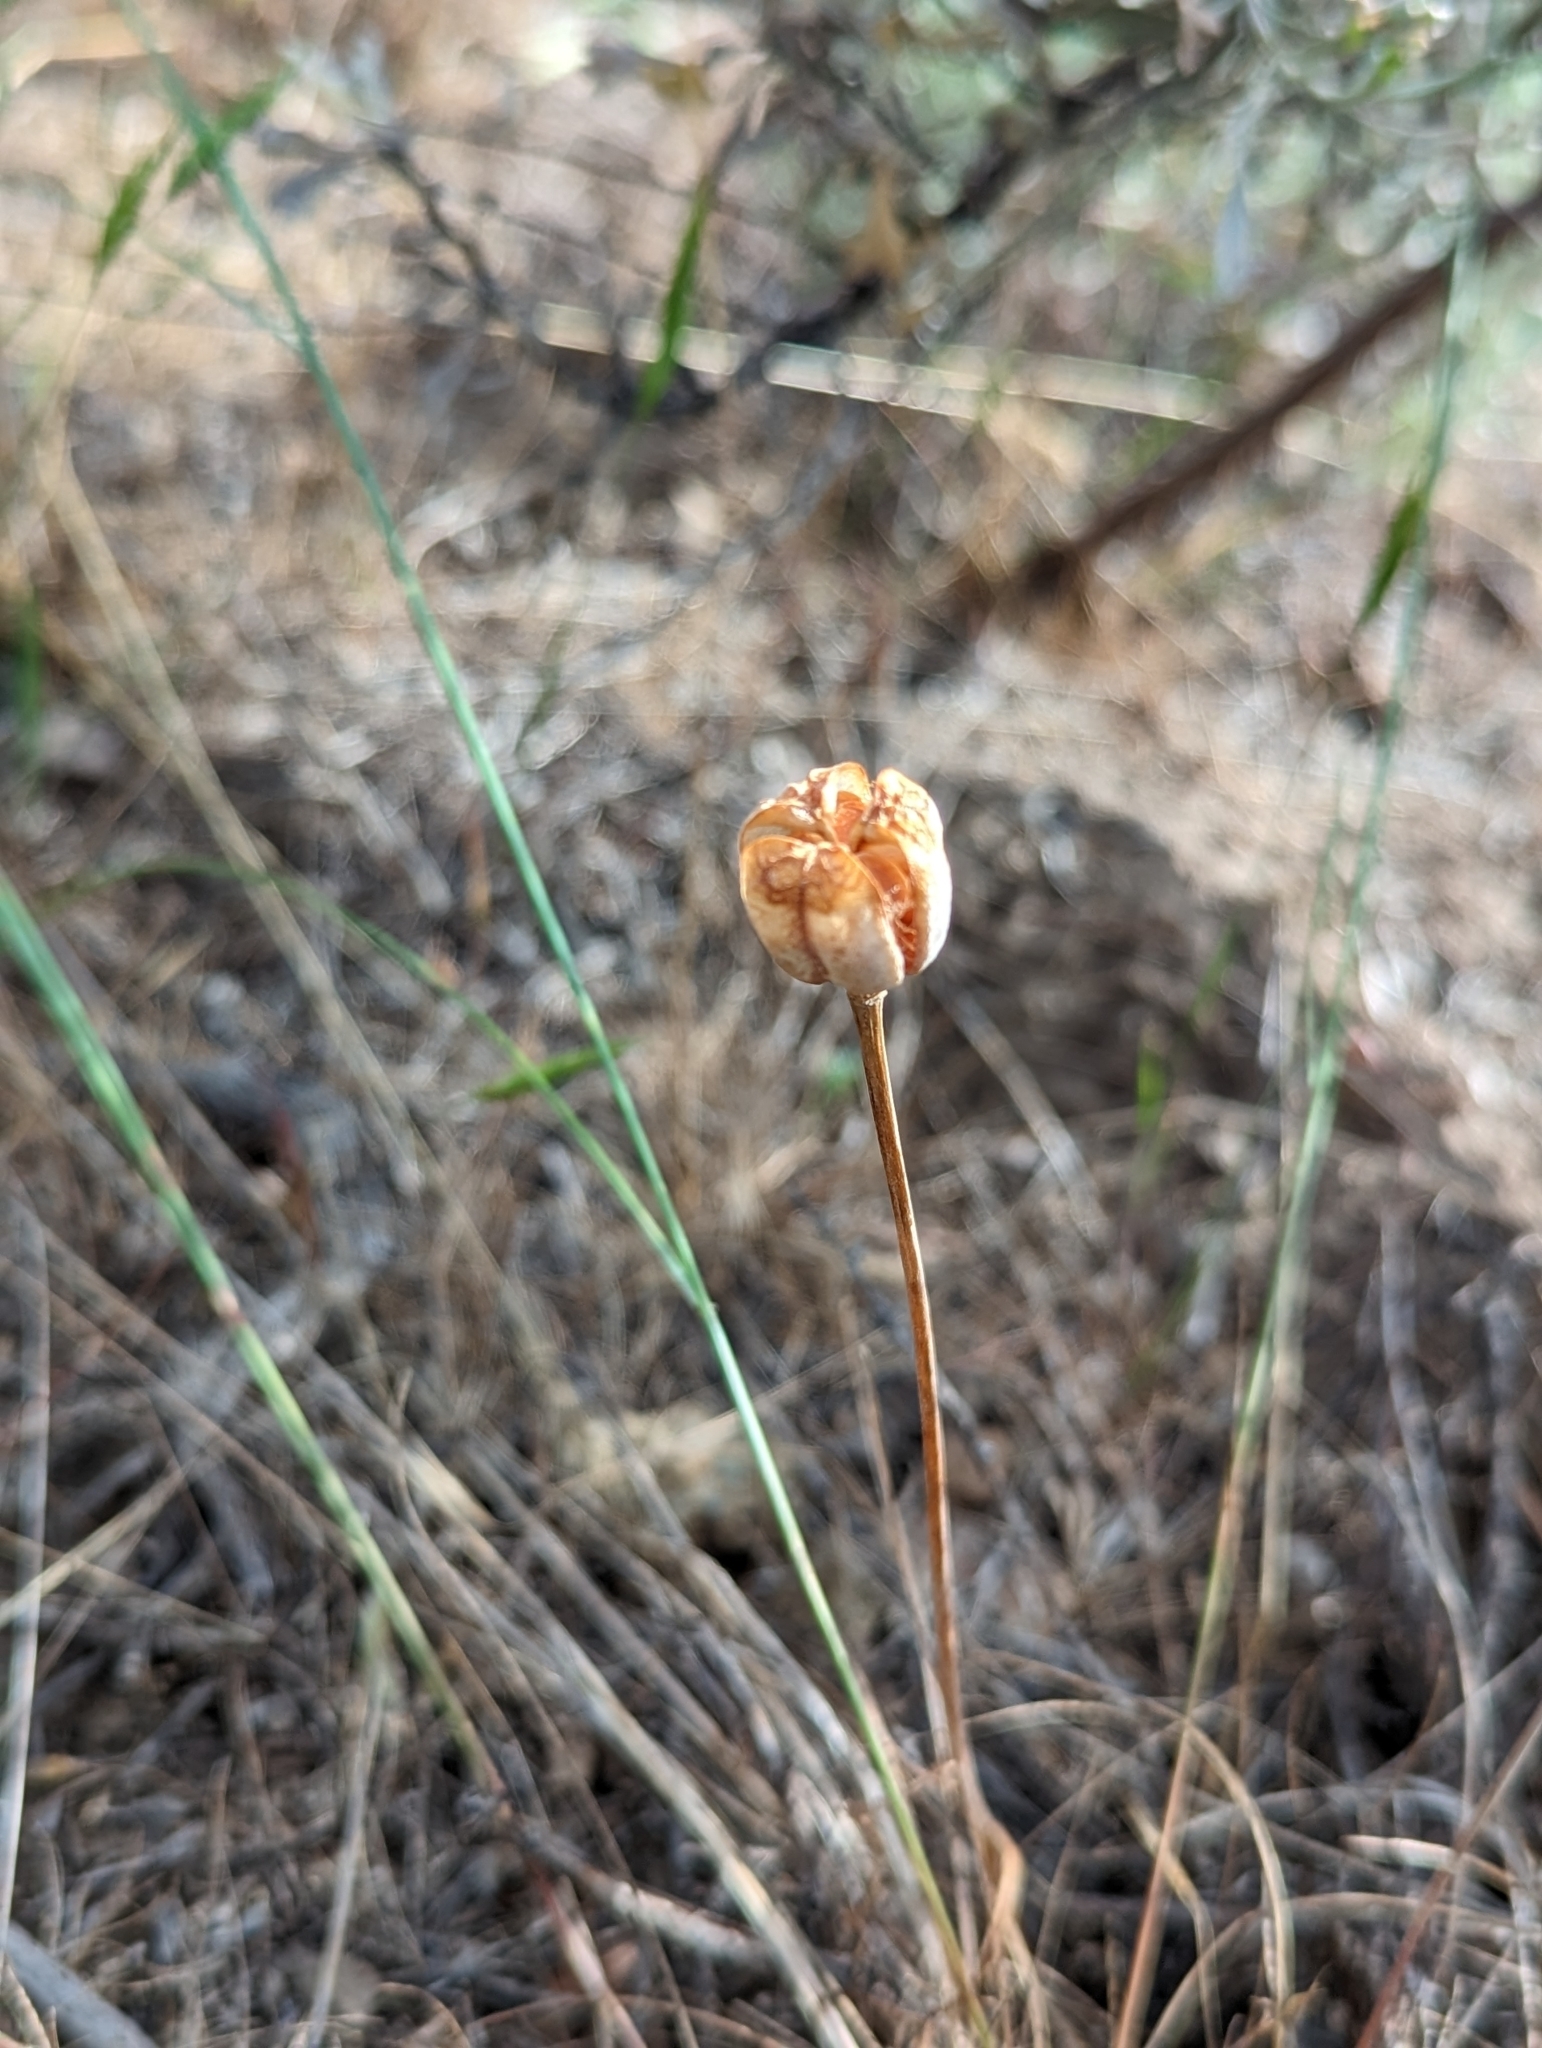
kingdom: Plantae
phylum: Tracheophyta
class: Liliopsida
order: Liliales
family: Liliaceae
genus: Fritillaria
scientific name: Fritillaria pudica
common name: Yellow fritillary
